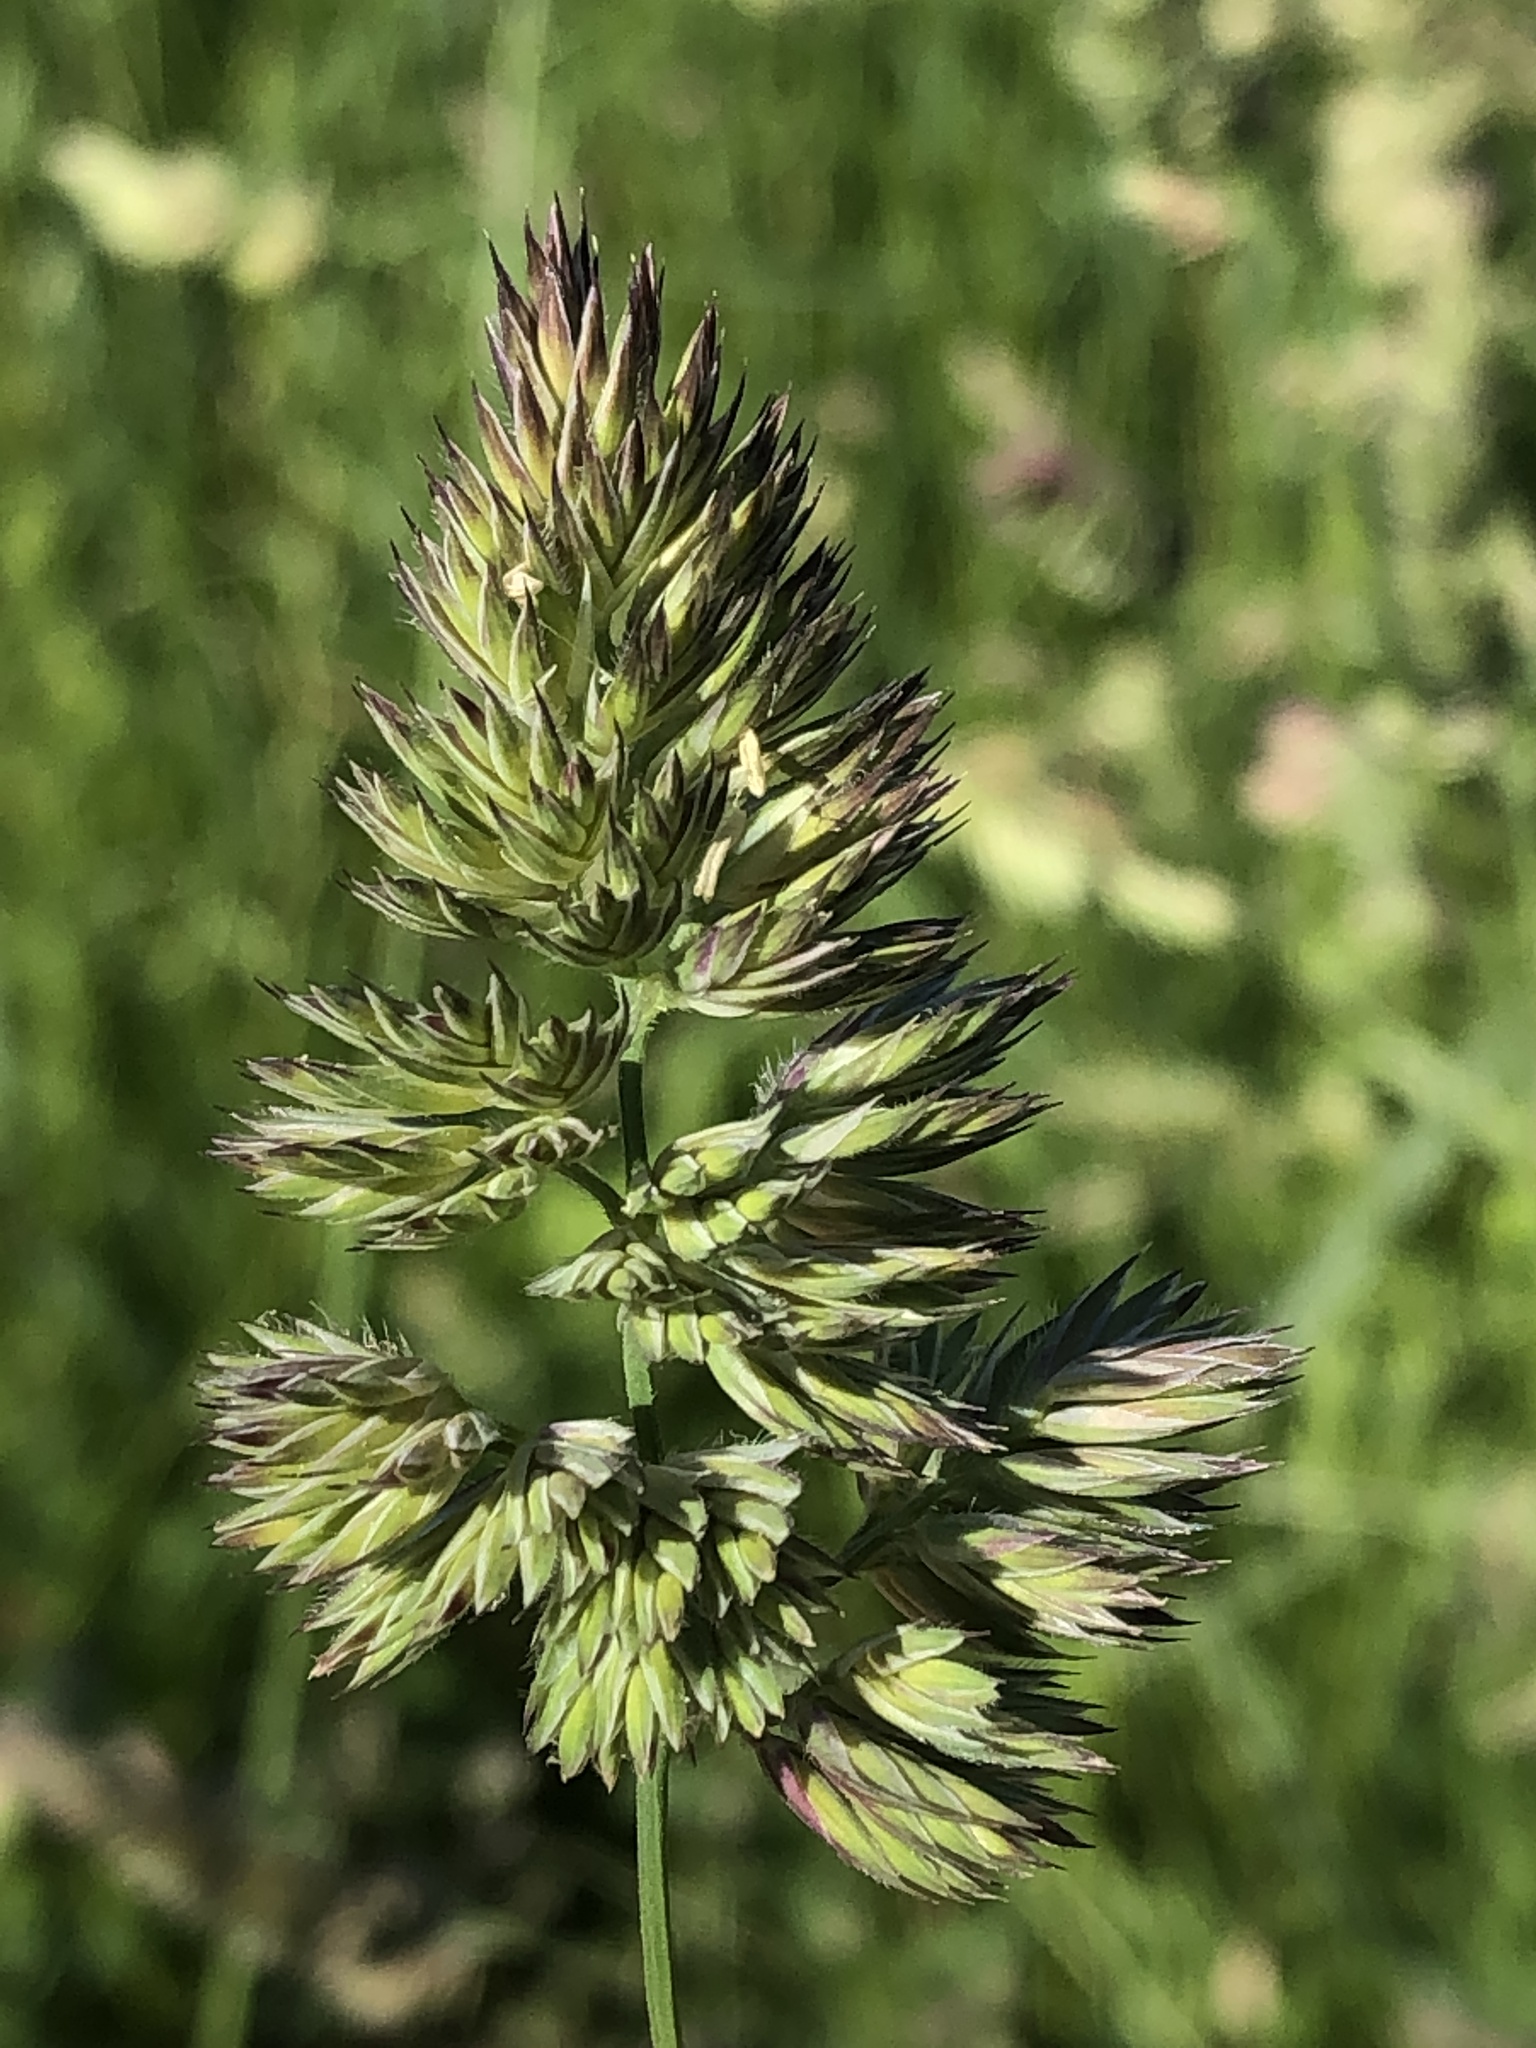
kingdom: Plantae
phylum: Tracheophyta
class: Liliopsida
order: Poales
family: Poaceae
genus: Dactylis
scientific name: Dactylis glomerata
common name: Orchardgrass
